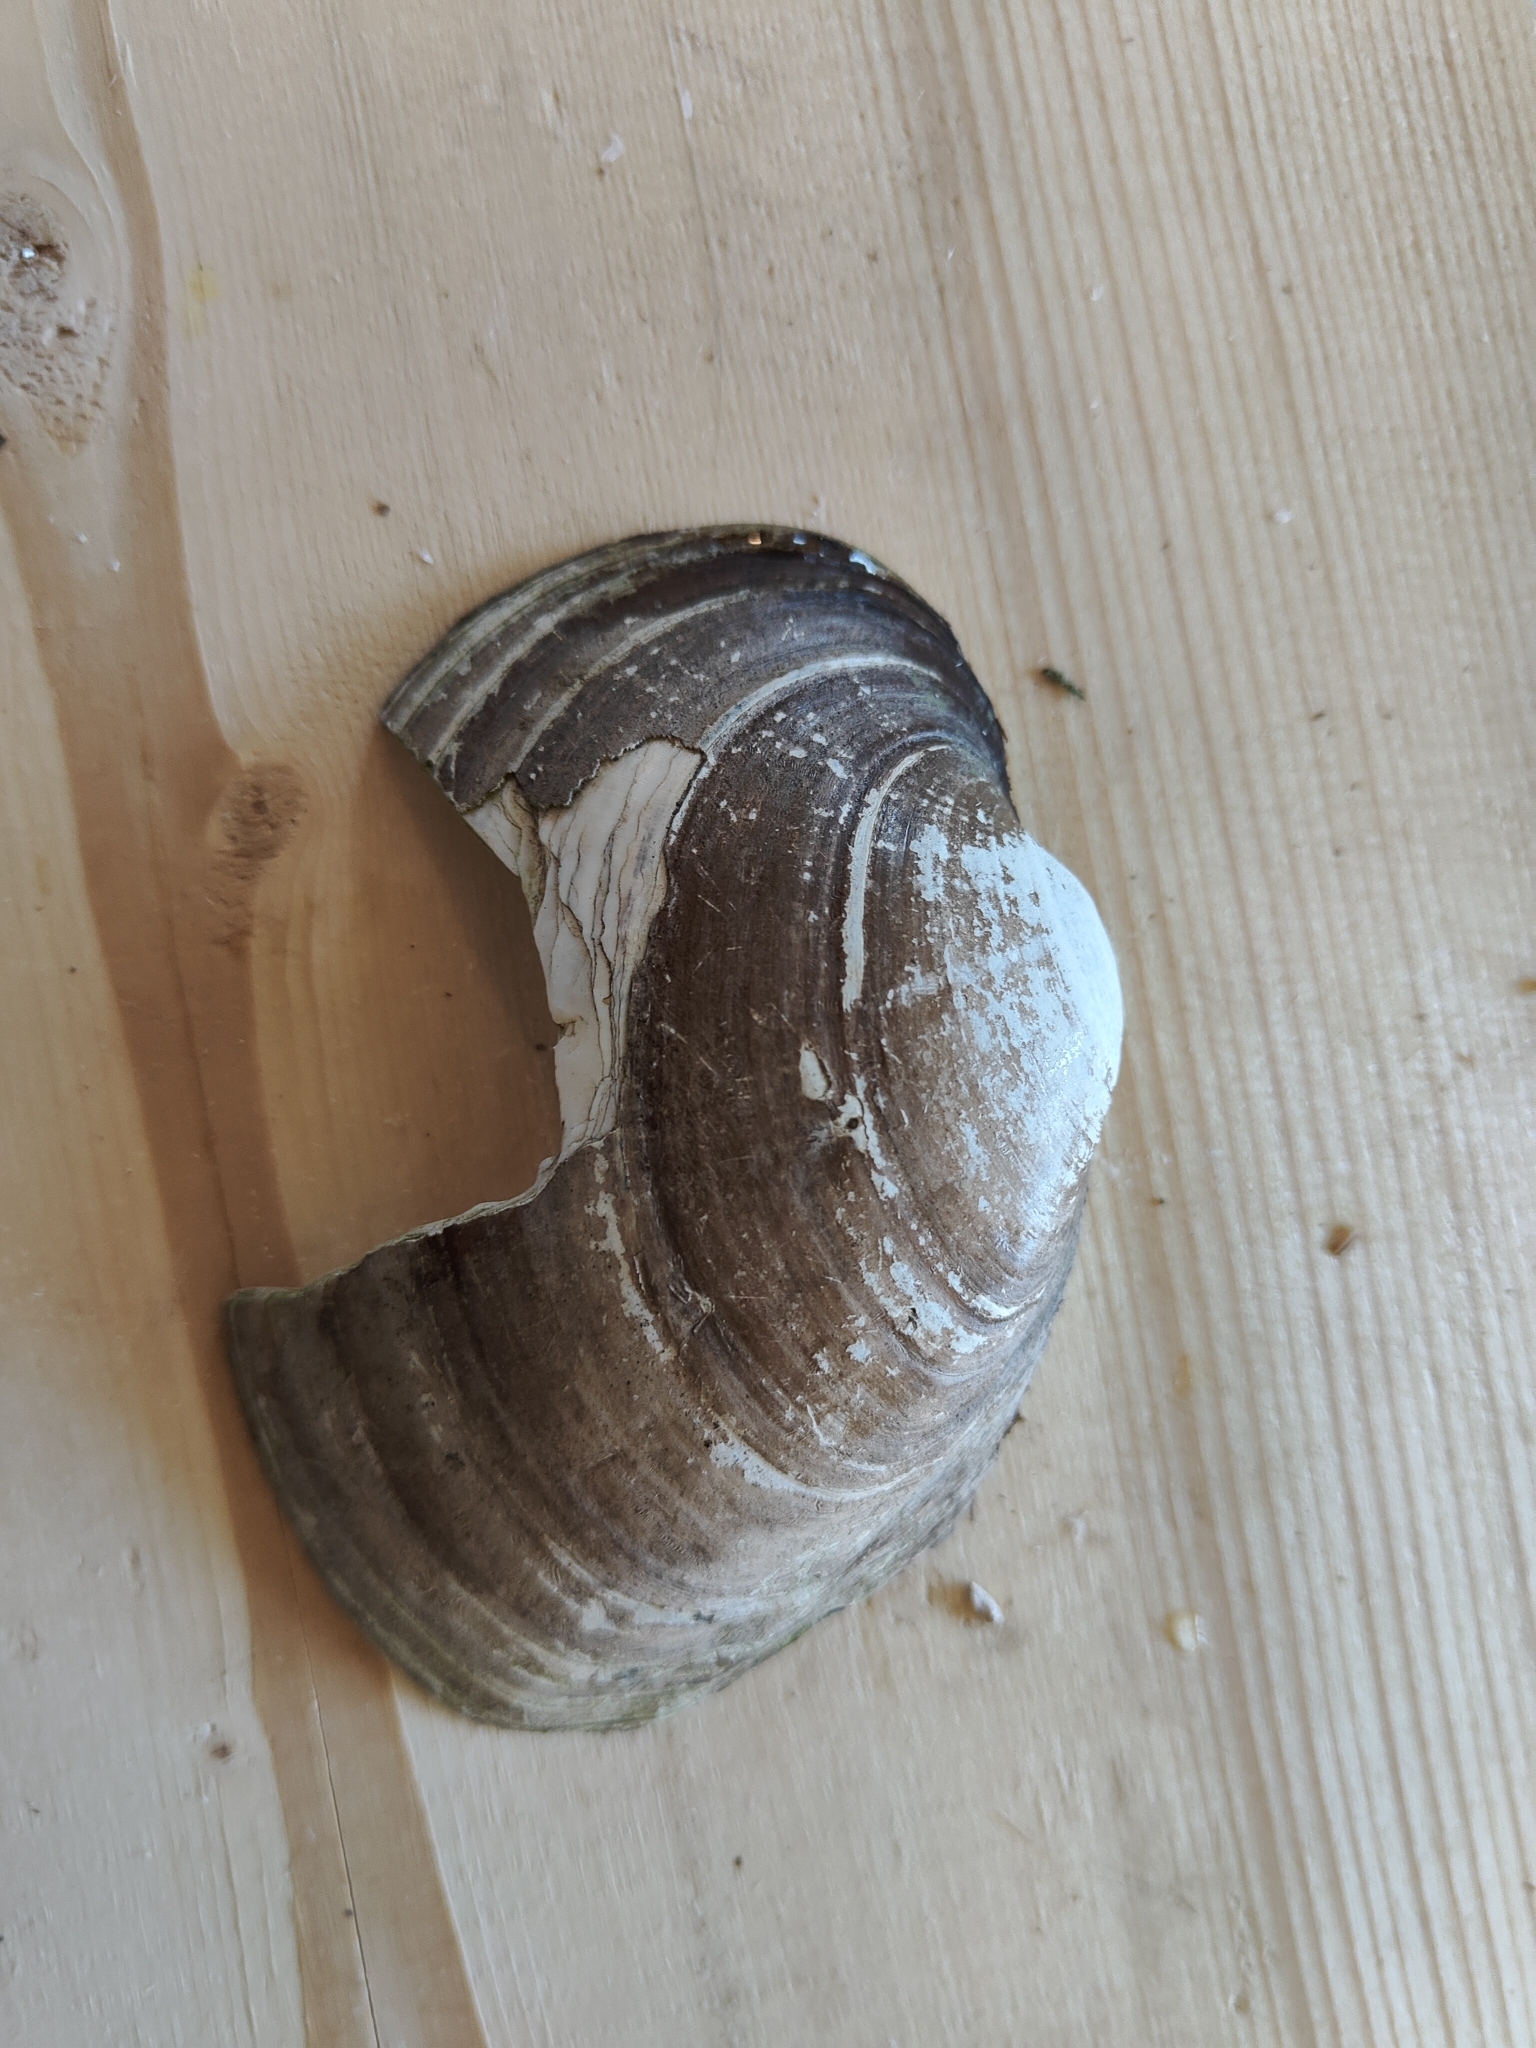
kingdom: Animalia
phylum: Mollusca
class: Bivalvia
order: Unionida
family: Unionidae
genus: Lampsilis
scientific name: Lampsilis cardium
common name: Plain pocketbook
